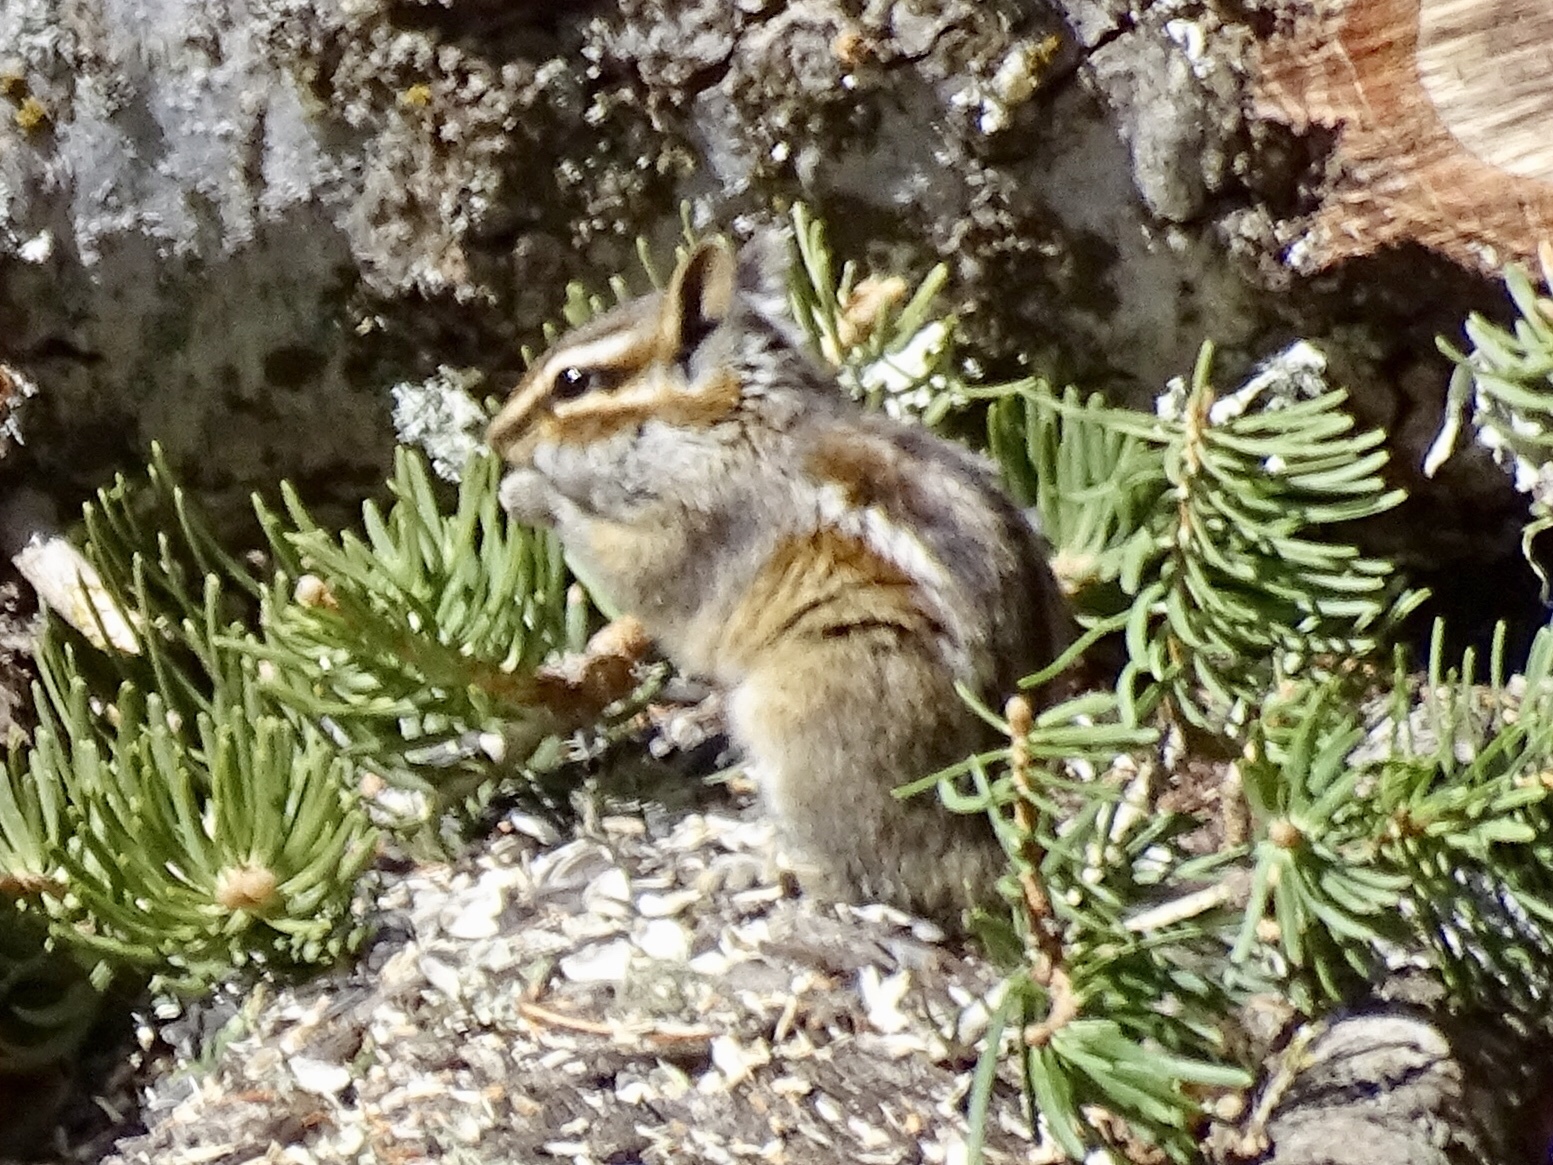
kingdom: Animalia
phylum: Chordata
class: Mammalia
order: Rodentia
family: Sciuridae
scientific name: Sciuridae
